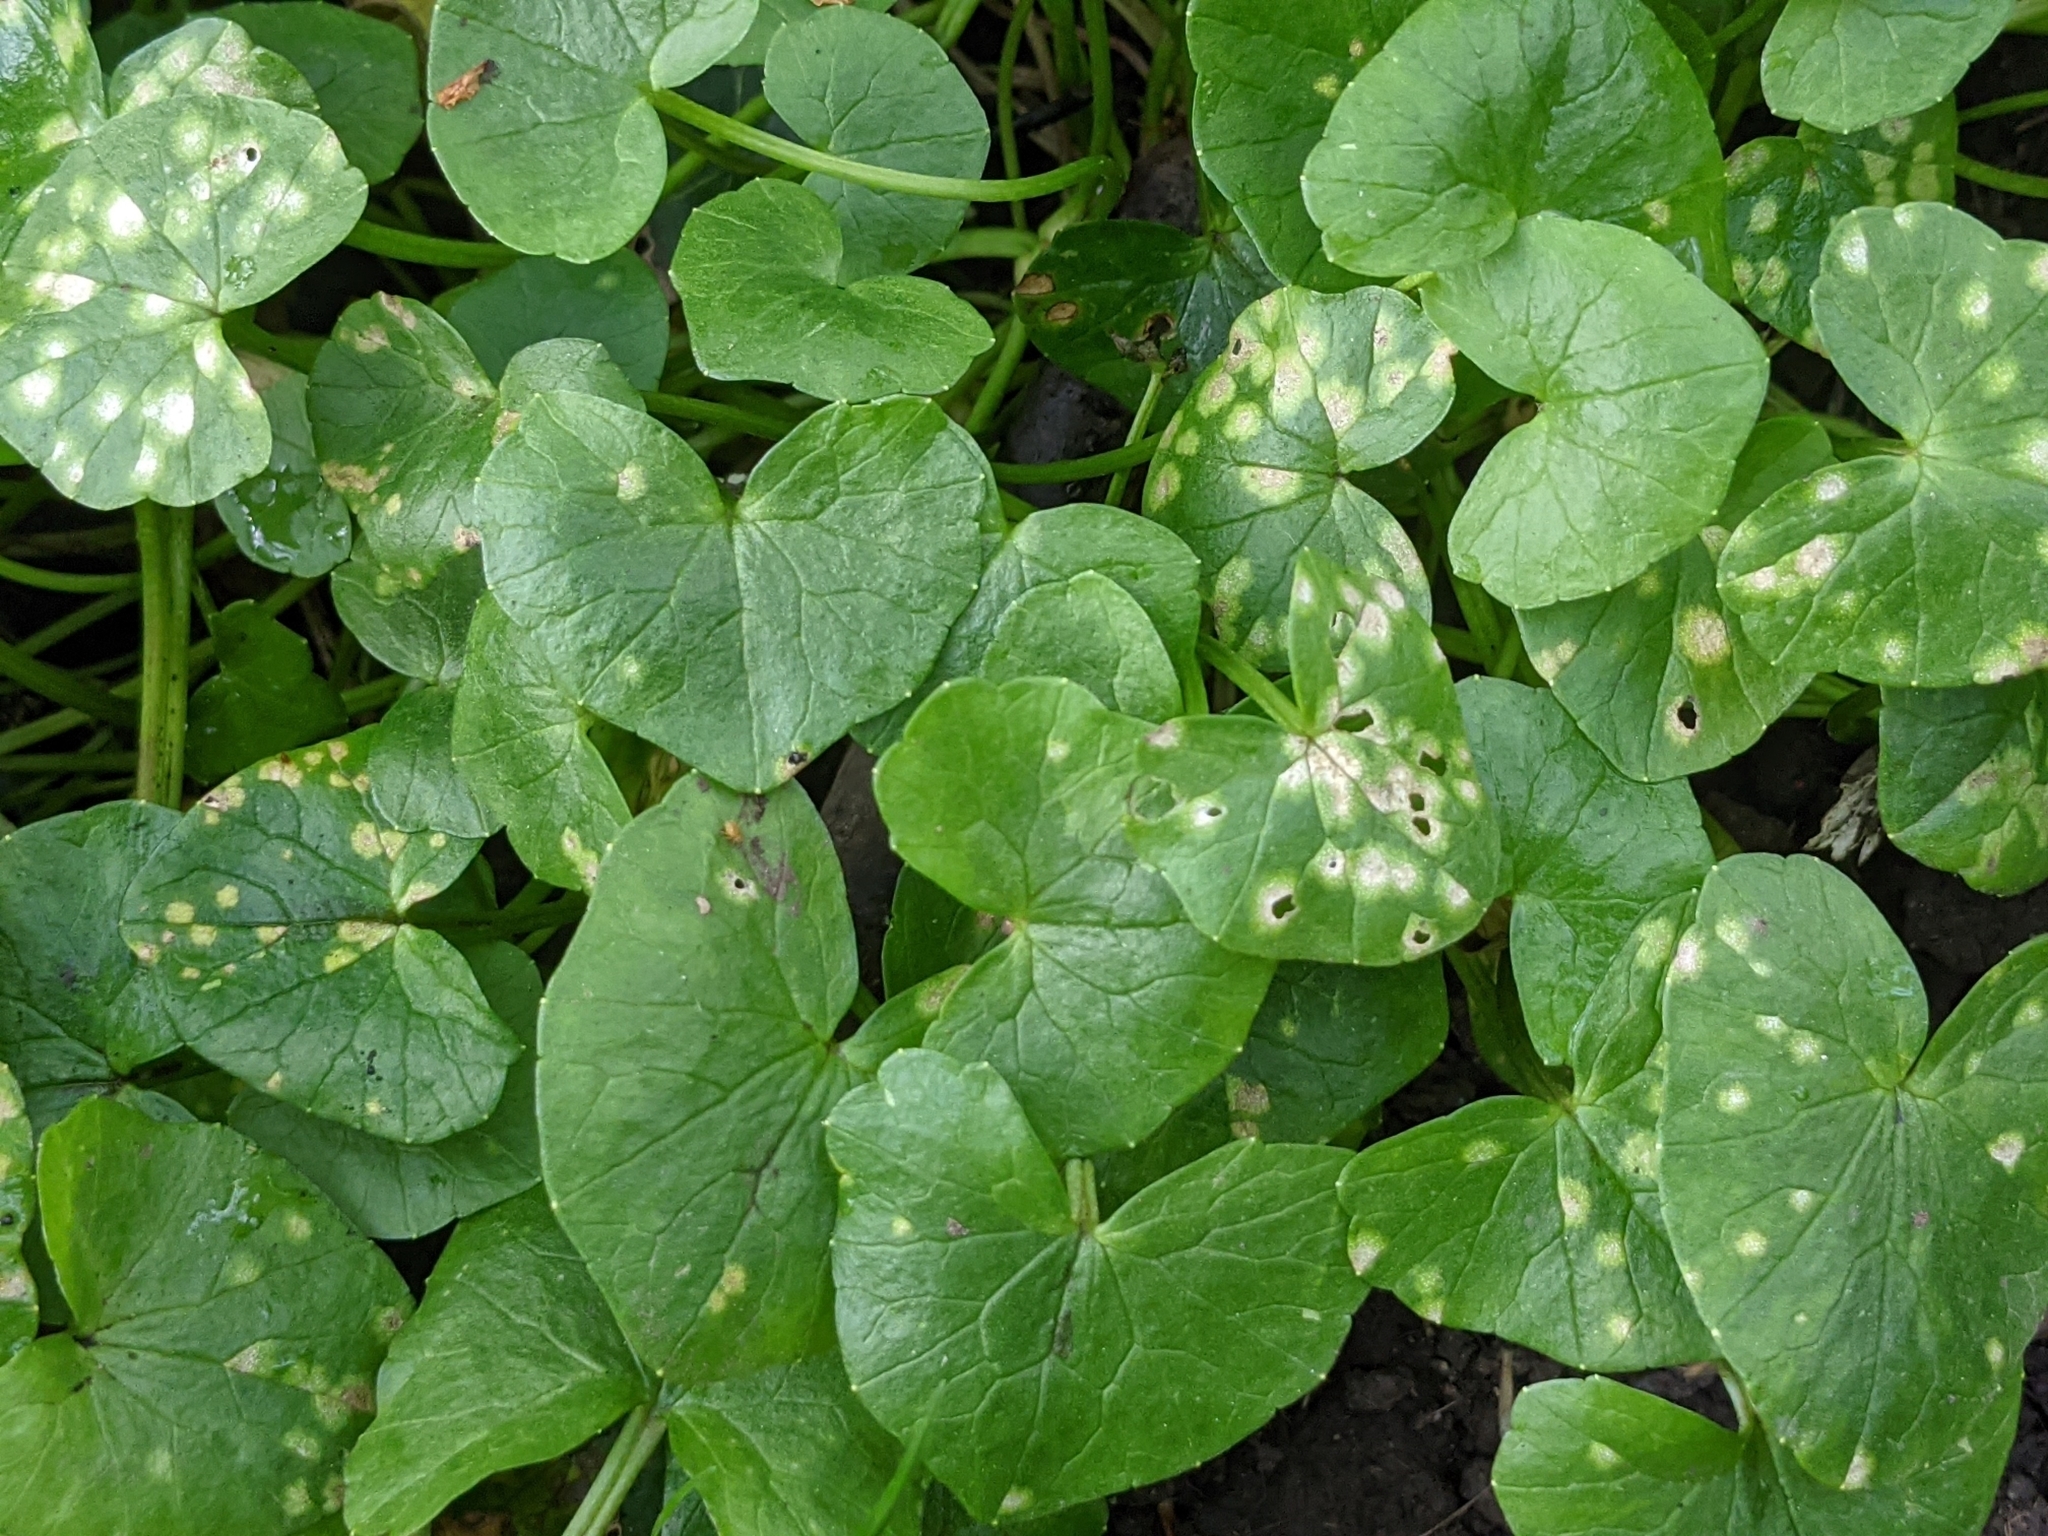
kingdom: Plantae
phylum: Tracheophyta
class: Magnoliopsida
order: Ranunculales
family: Ranunculaceae
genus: Ficaria
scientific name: Ficaria verna
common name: Lesser celandine
